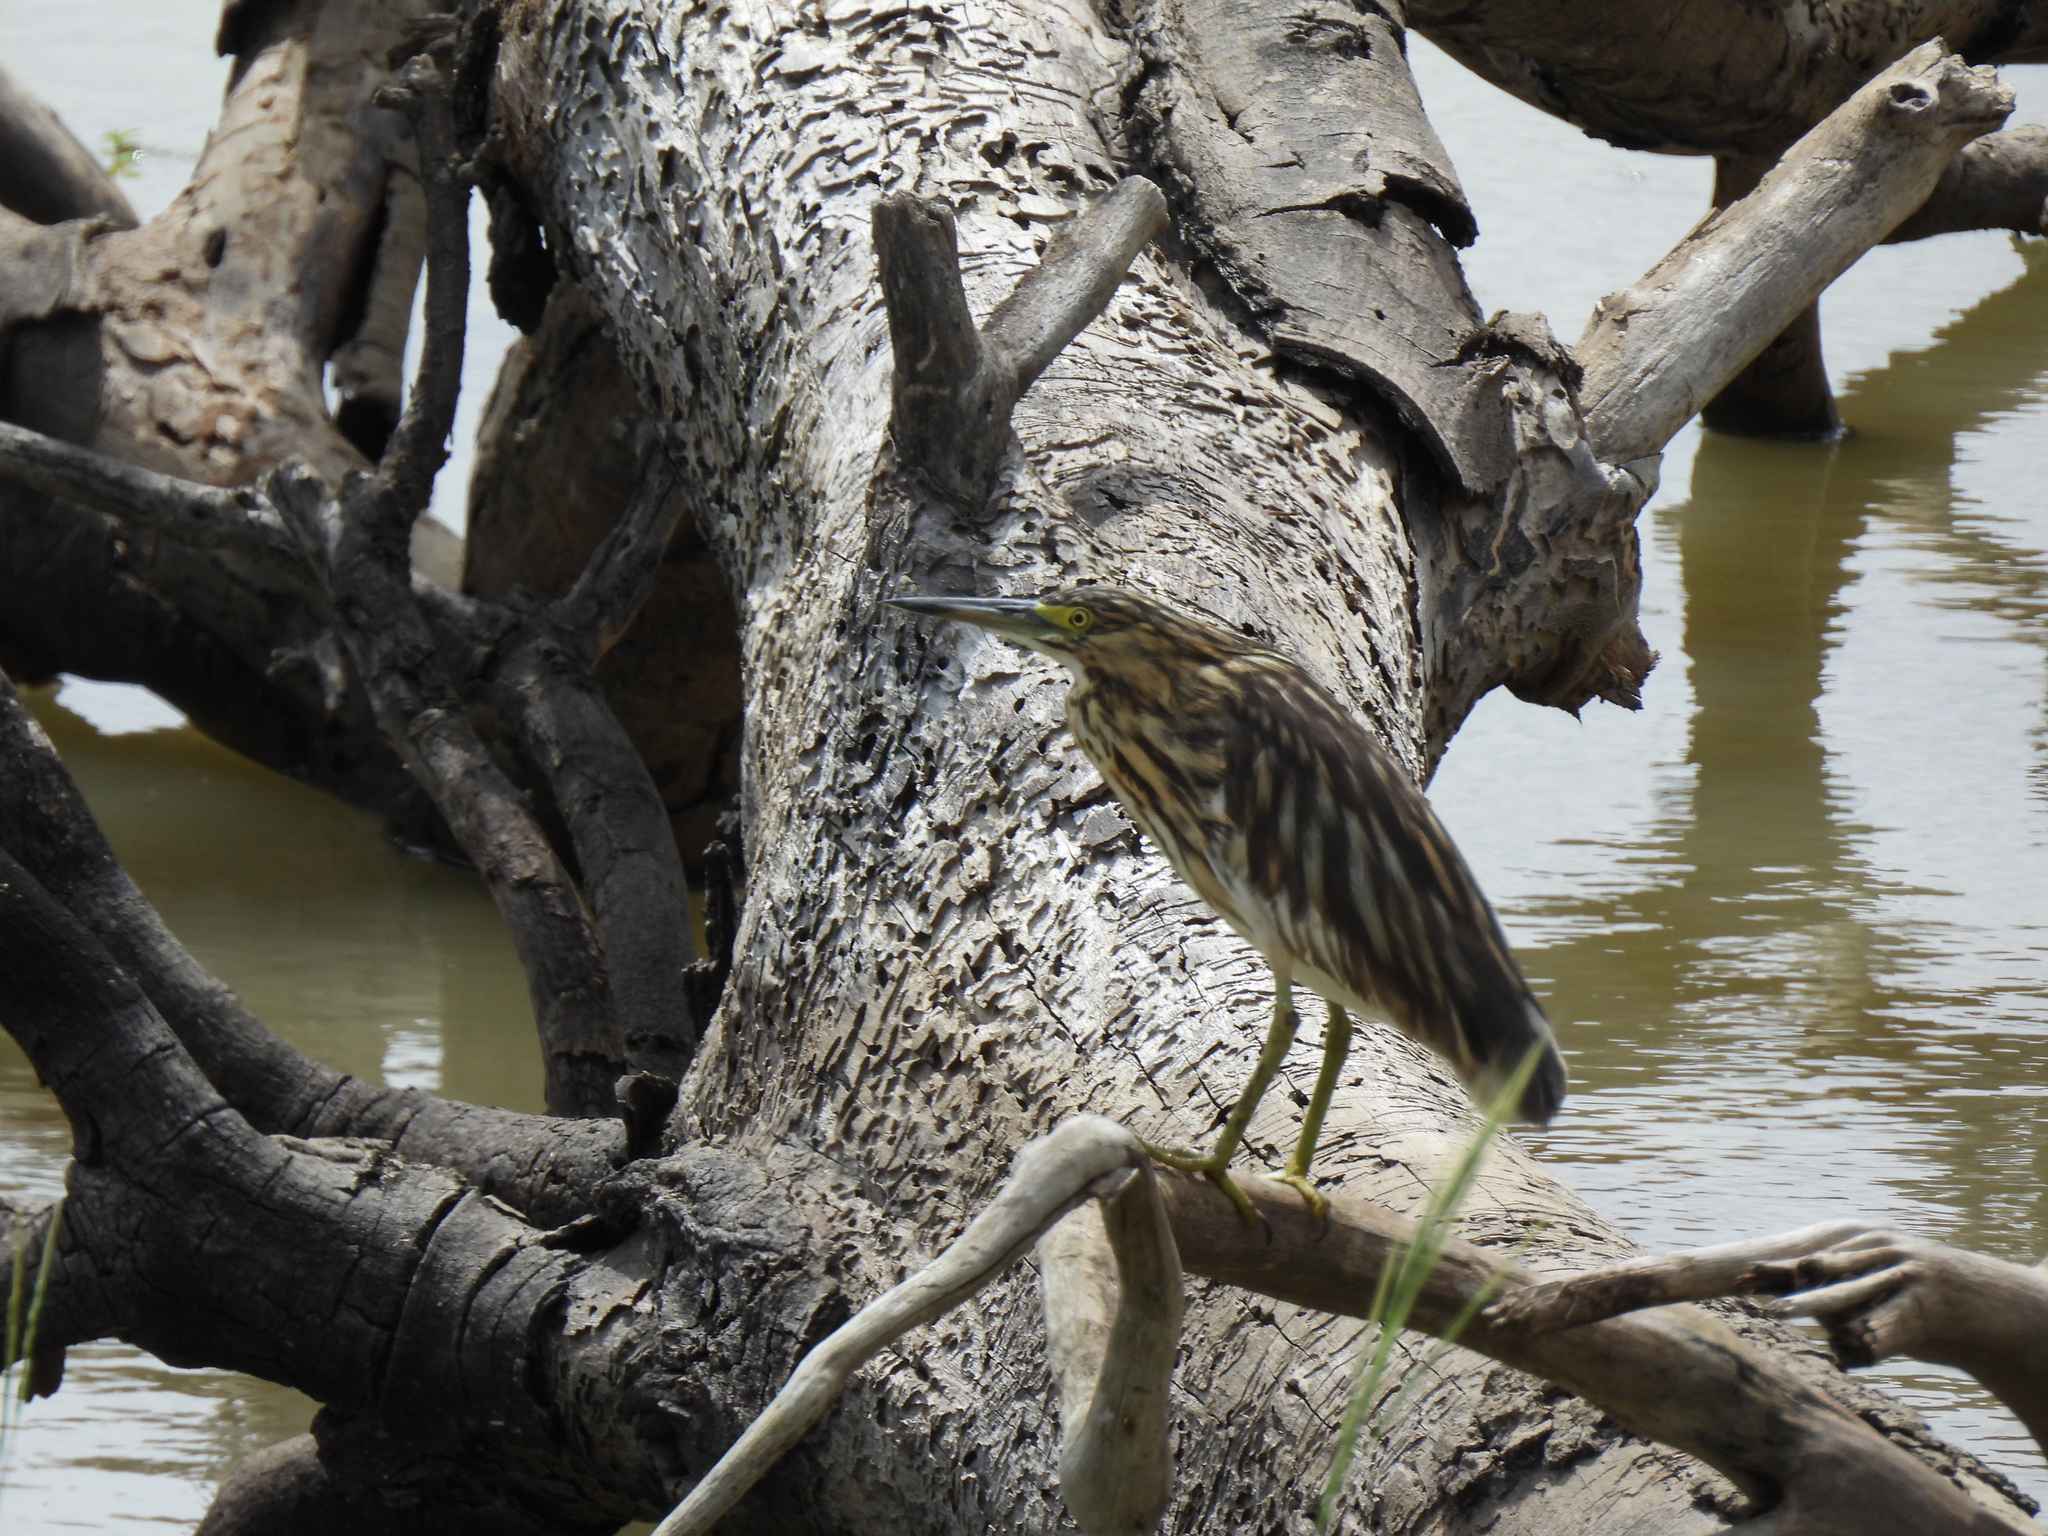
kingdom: Animalia
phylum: Chordata
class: Aves
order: Pelecaniformes
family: Ardeidae
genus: Ardeola
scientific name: Ardeola idae
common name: Malagasy pond heron
